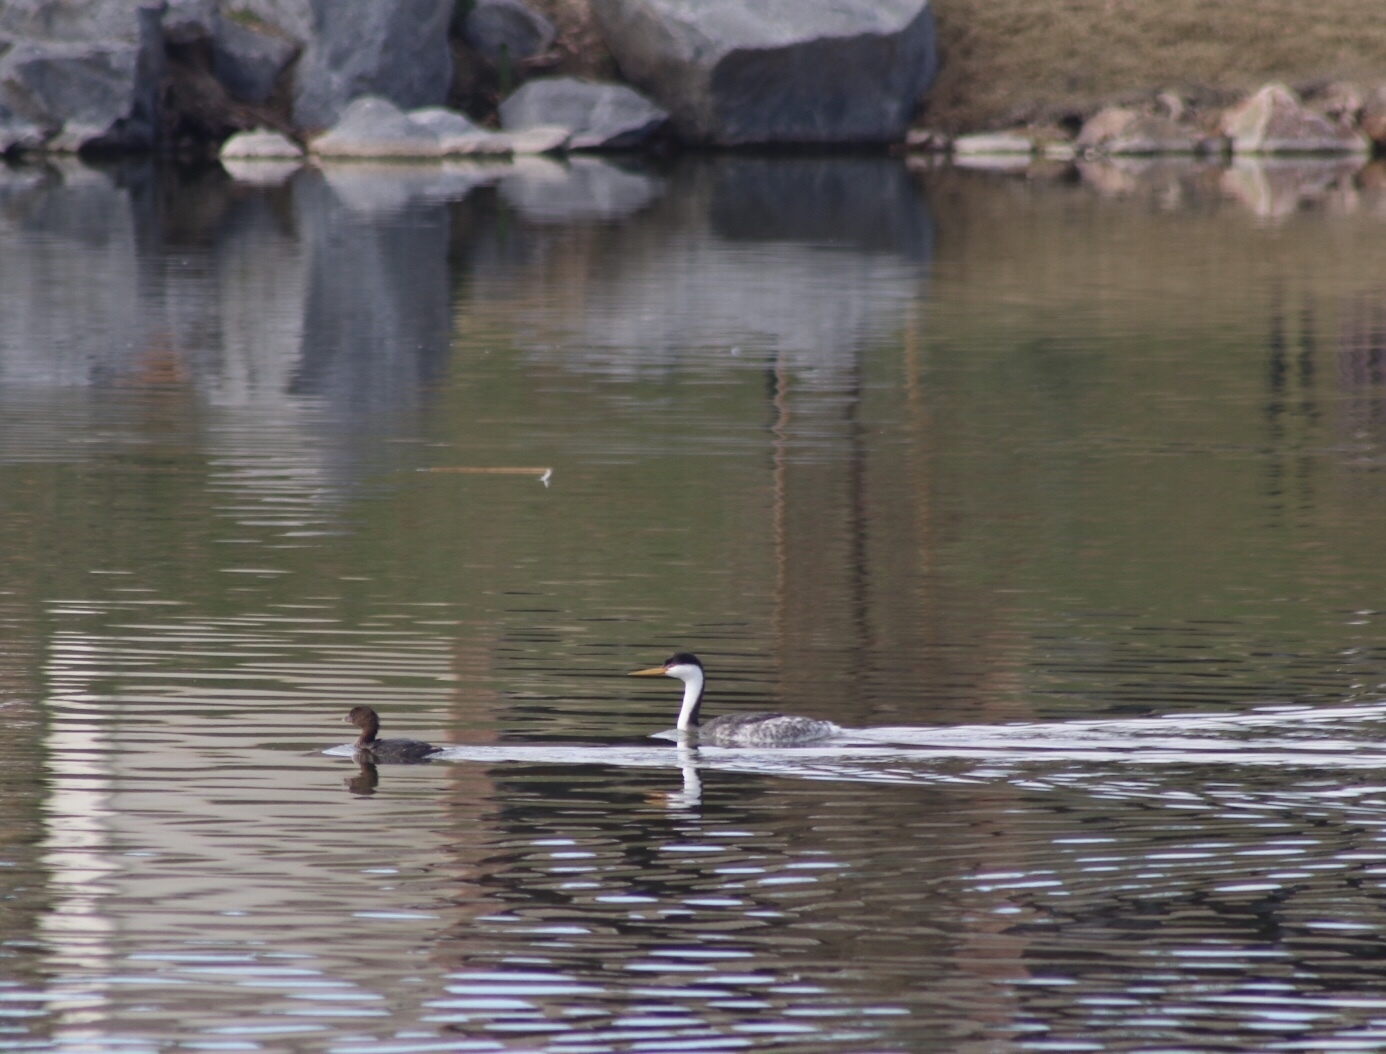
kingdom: Animalia
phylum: Chordata
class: Aves
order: Podicipediformes
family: Podicipedidae
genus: Aechmophorus
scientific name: Aechmophorus clarkii
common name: Clark's grebe
